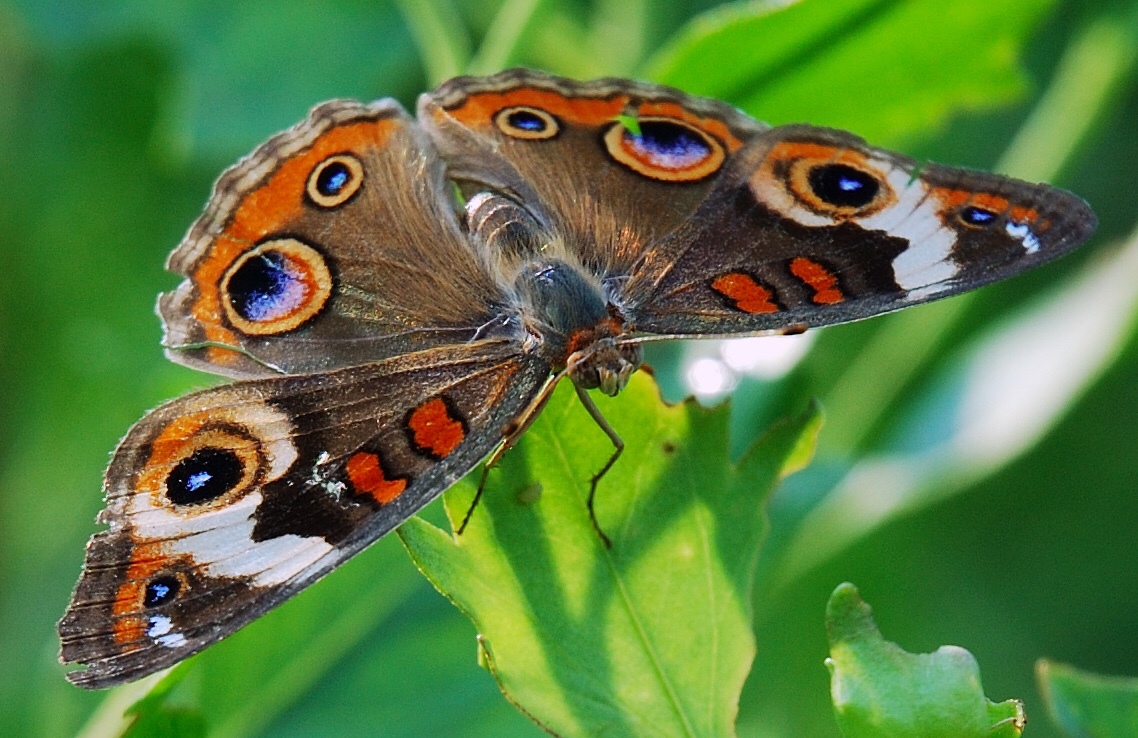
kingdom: Animalia
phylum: Arthropoda
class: Insecta
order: Lepidoptera
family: Nymphalidae
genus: Junonia
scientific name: Junonia coenia
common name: Common buckeye
